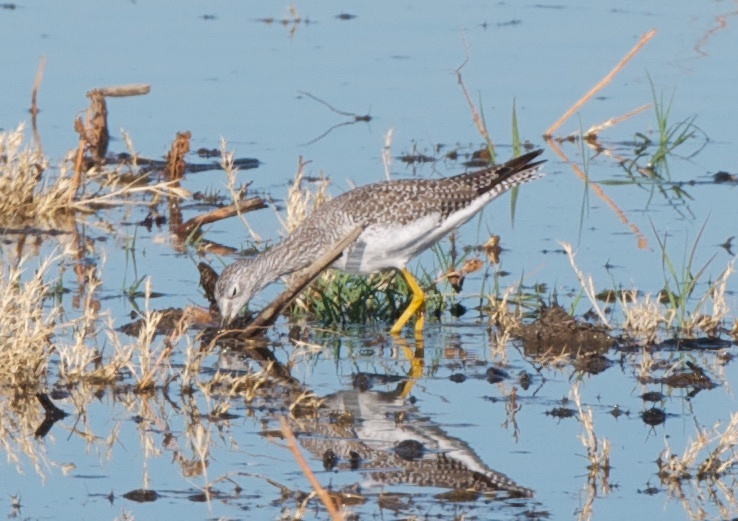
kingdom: Animalia
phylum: Chordata
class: Aves
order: Charadriiformes
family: Scolopacidae
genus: Tringa
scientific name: Tringa melanoleuca
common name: Greater yellowlegs
